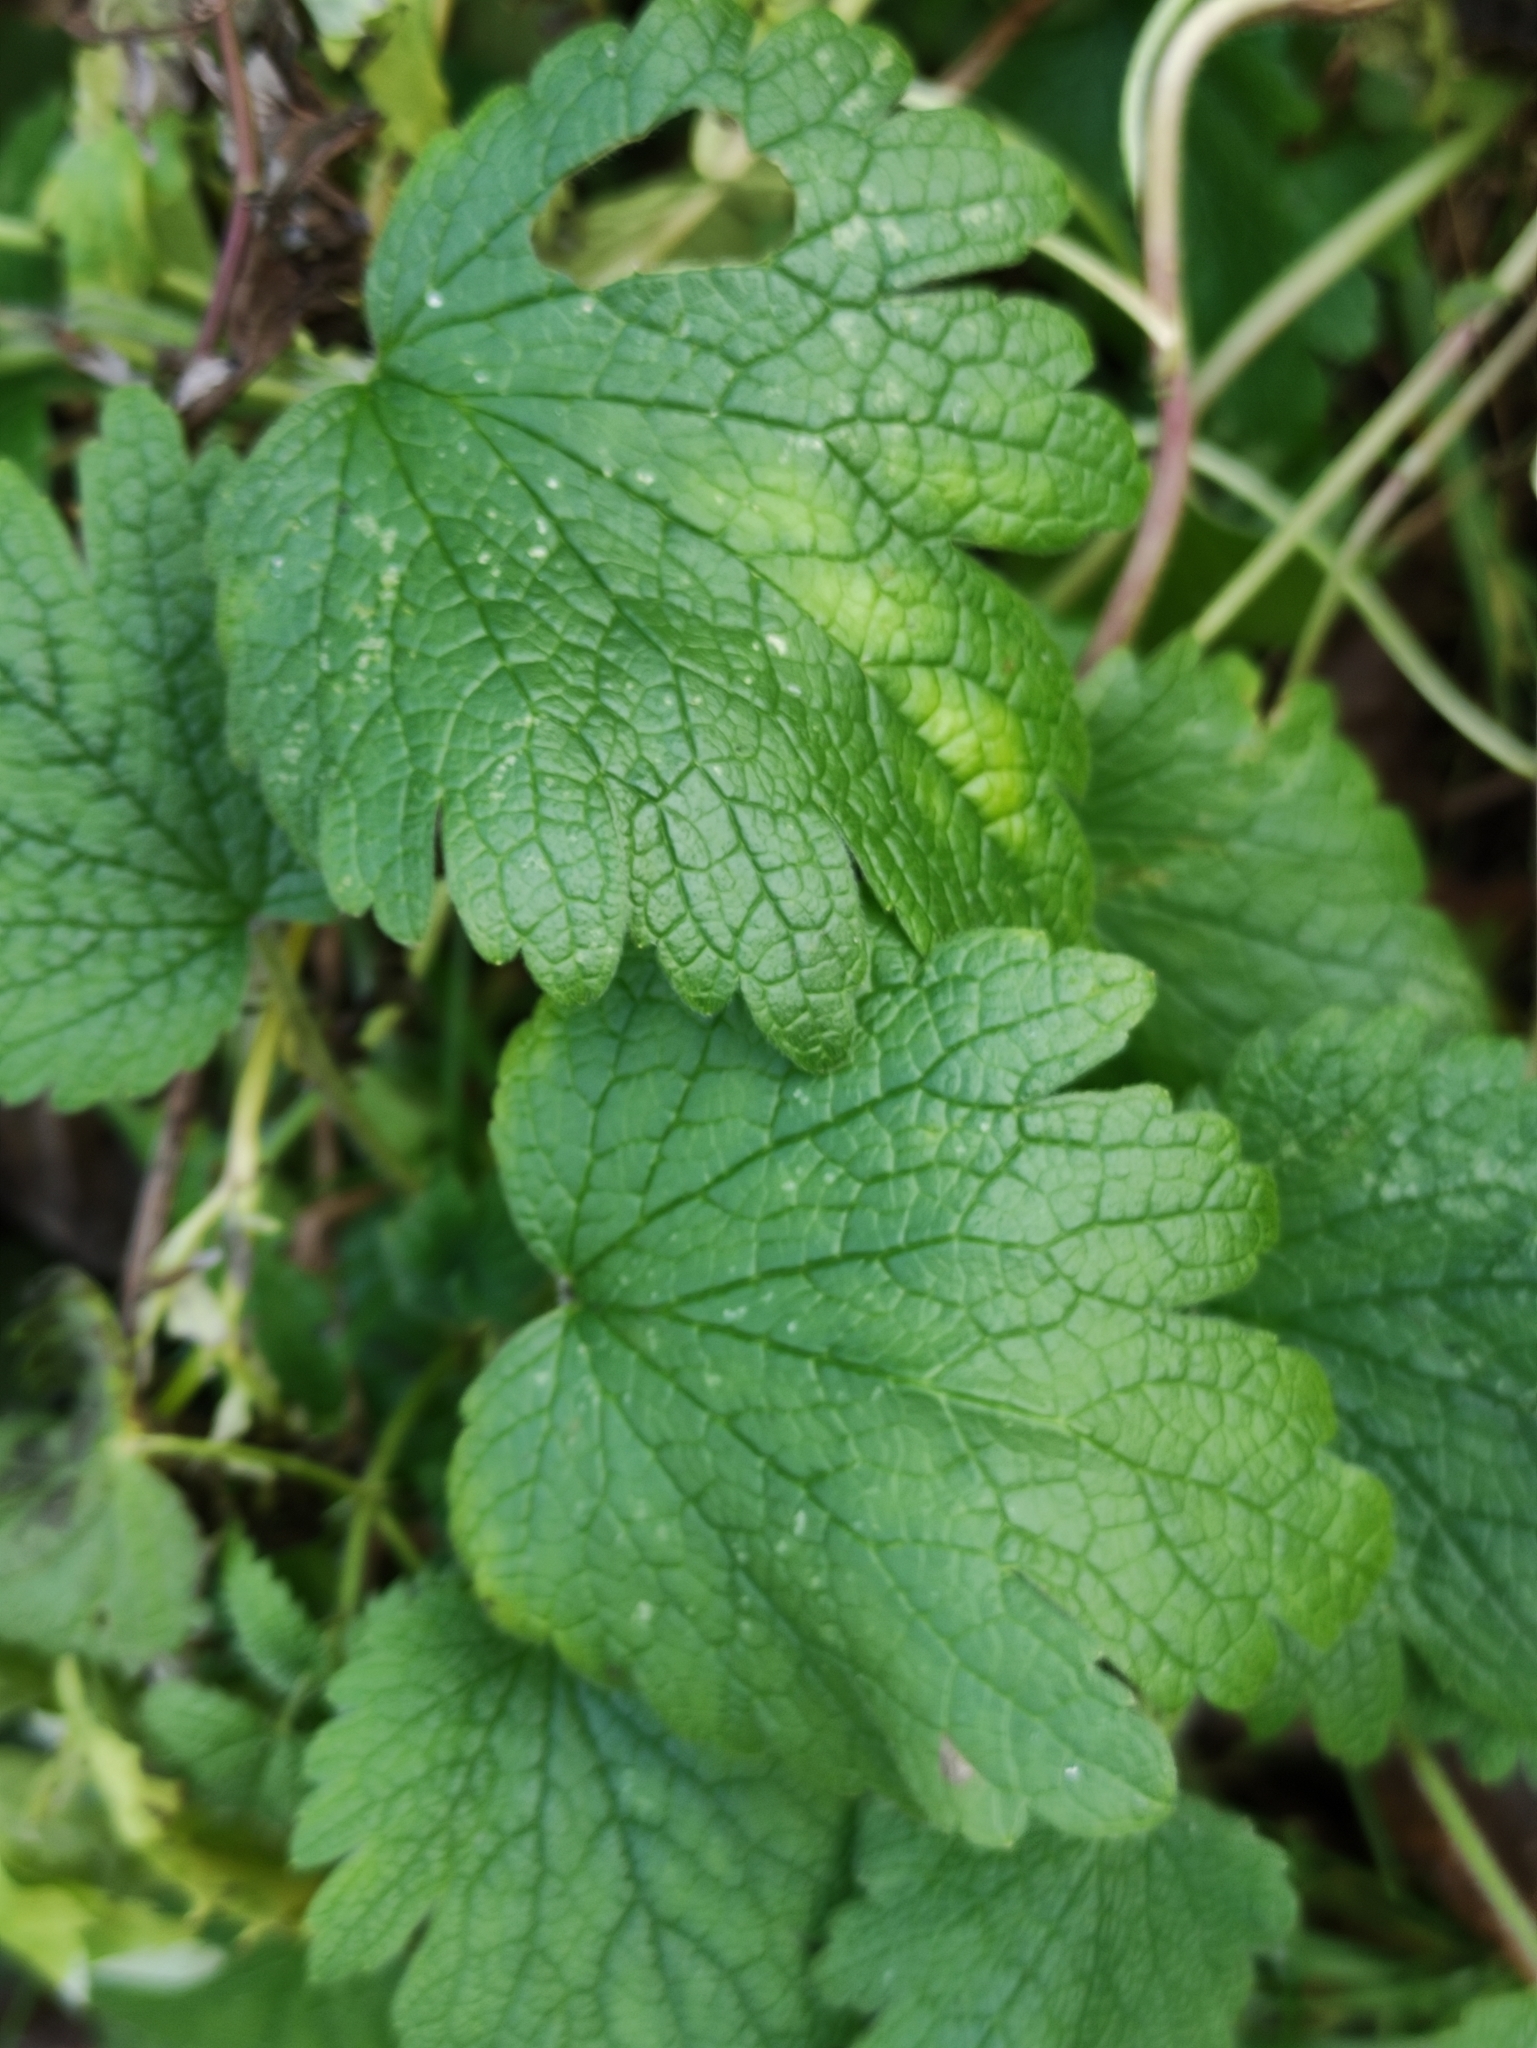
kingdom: Plantae
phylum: Tracheophyta
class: Magnoliopsida
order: Lamiales
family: Lamiaceae
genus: Leonurus
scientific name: Leonurus quinquelobatus
